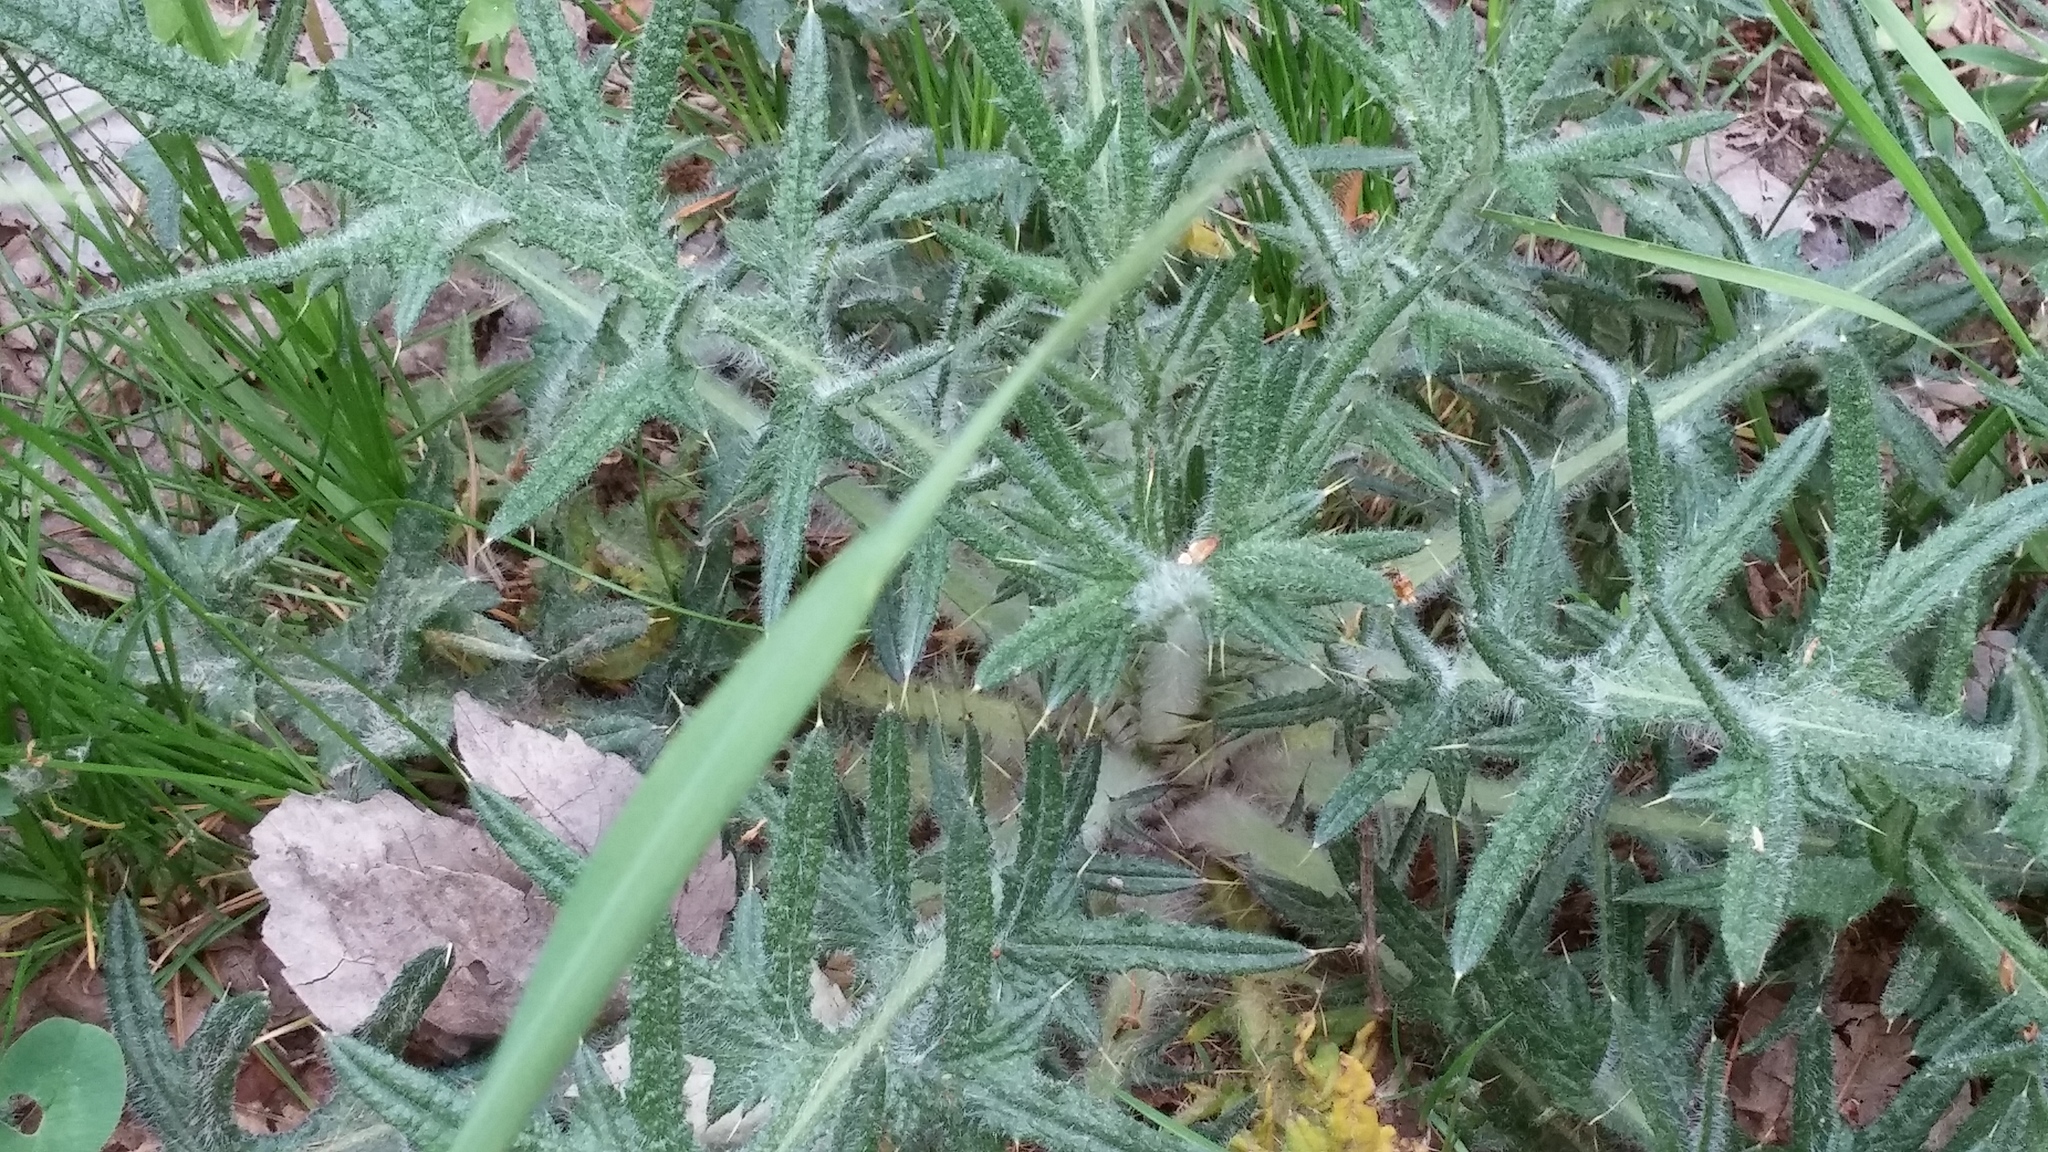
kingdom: Plantae
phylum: Tracheophyta
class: Magnoliopsida
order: Asterales
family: Asteraceae
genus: Cirsium
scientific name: Cirsium vulgare
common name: Bull thistle
